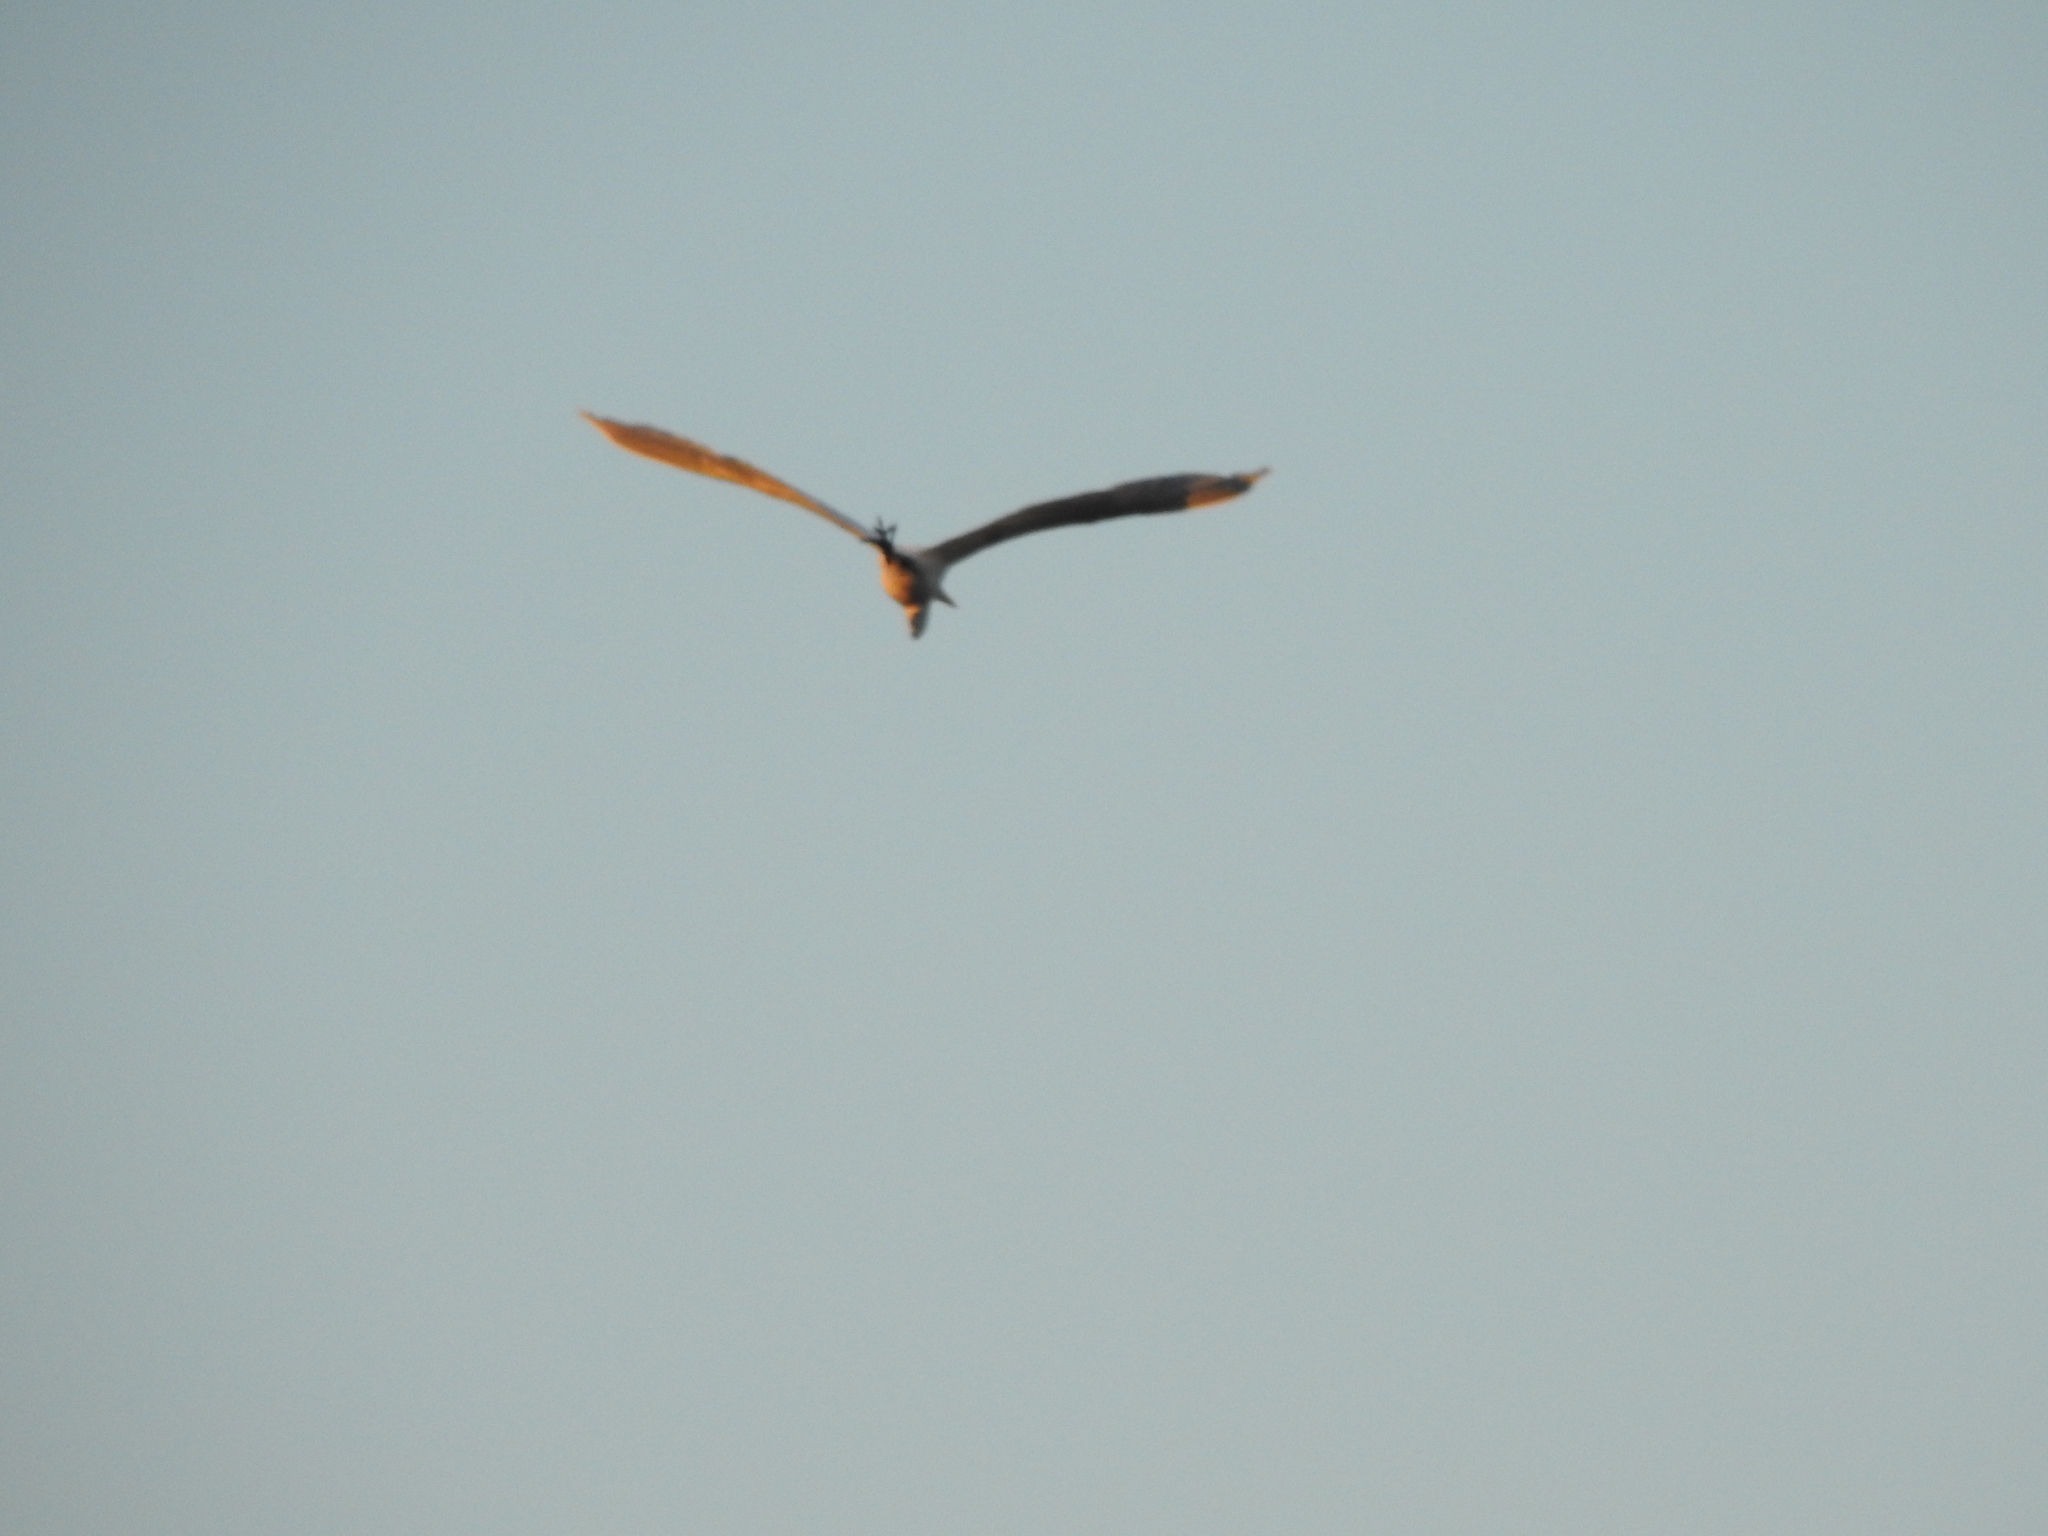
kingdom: Animalia
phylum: Chordata
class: Aves
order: Pelecaniformes
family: Ardeidae
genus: Ardea
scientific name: Ardea alba
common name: Great egret
